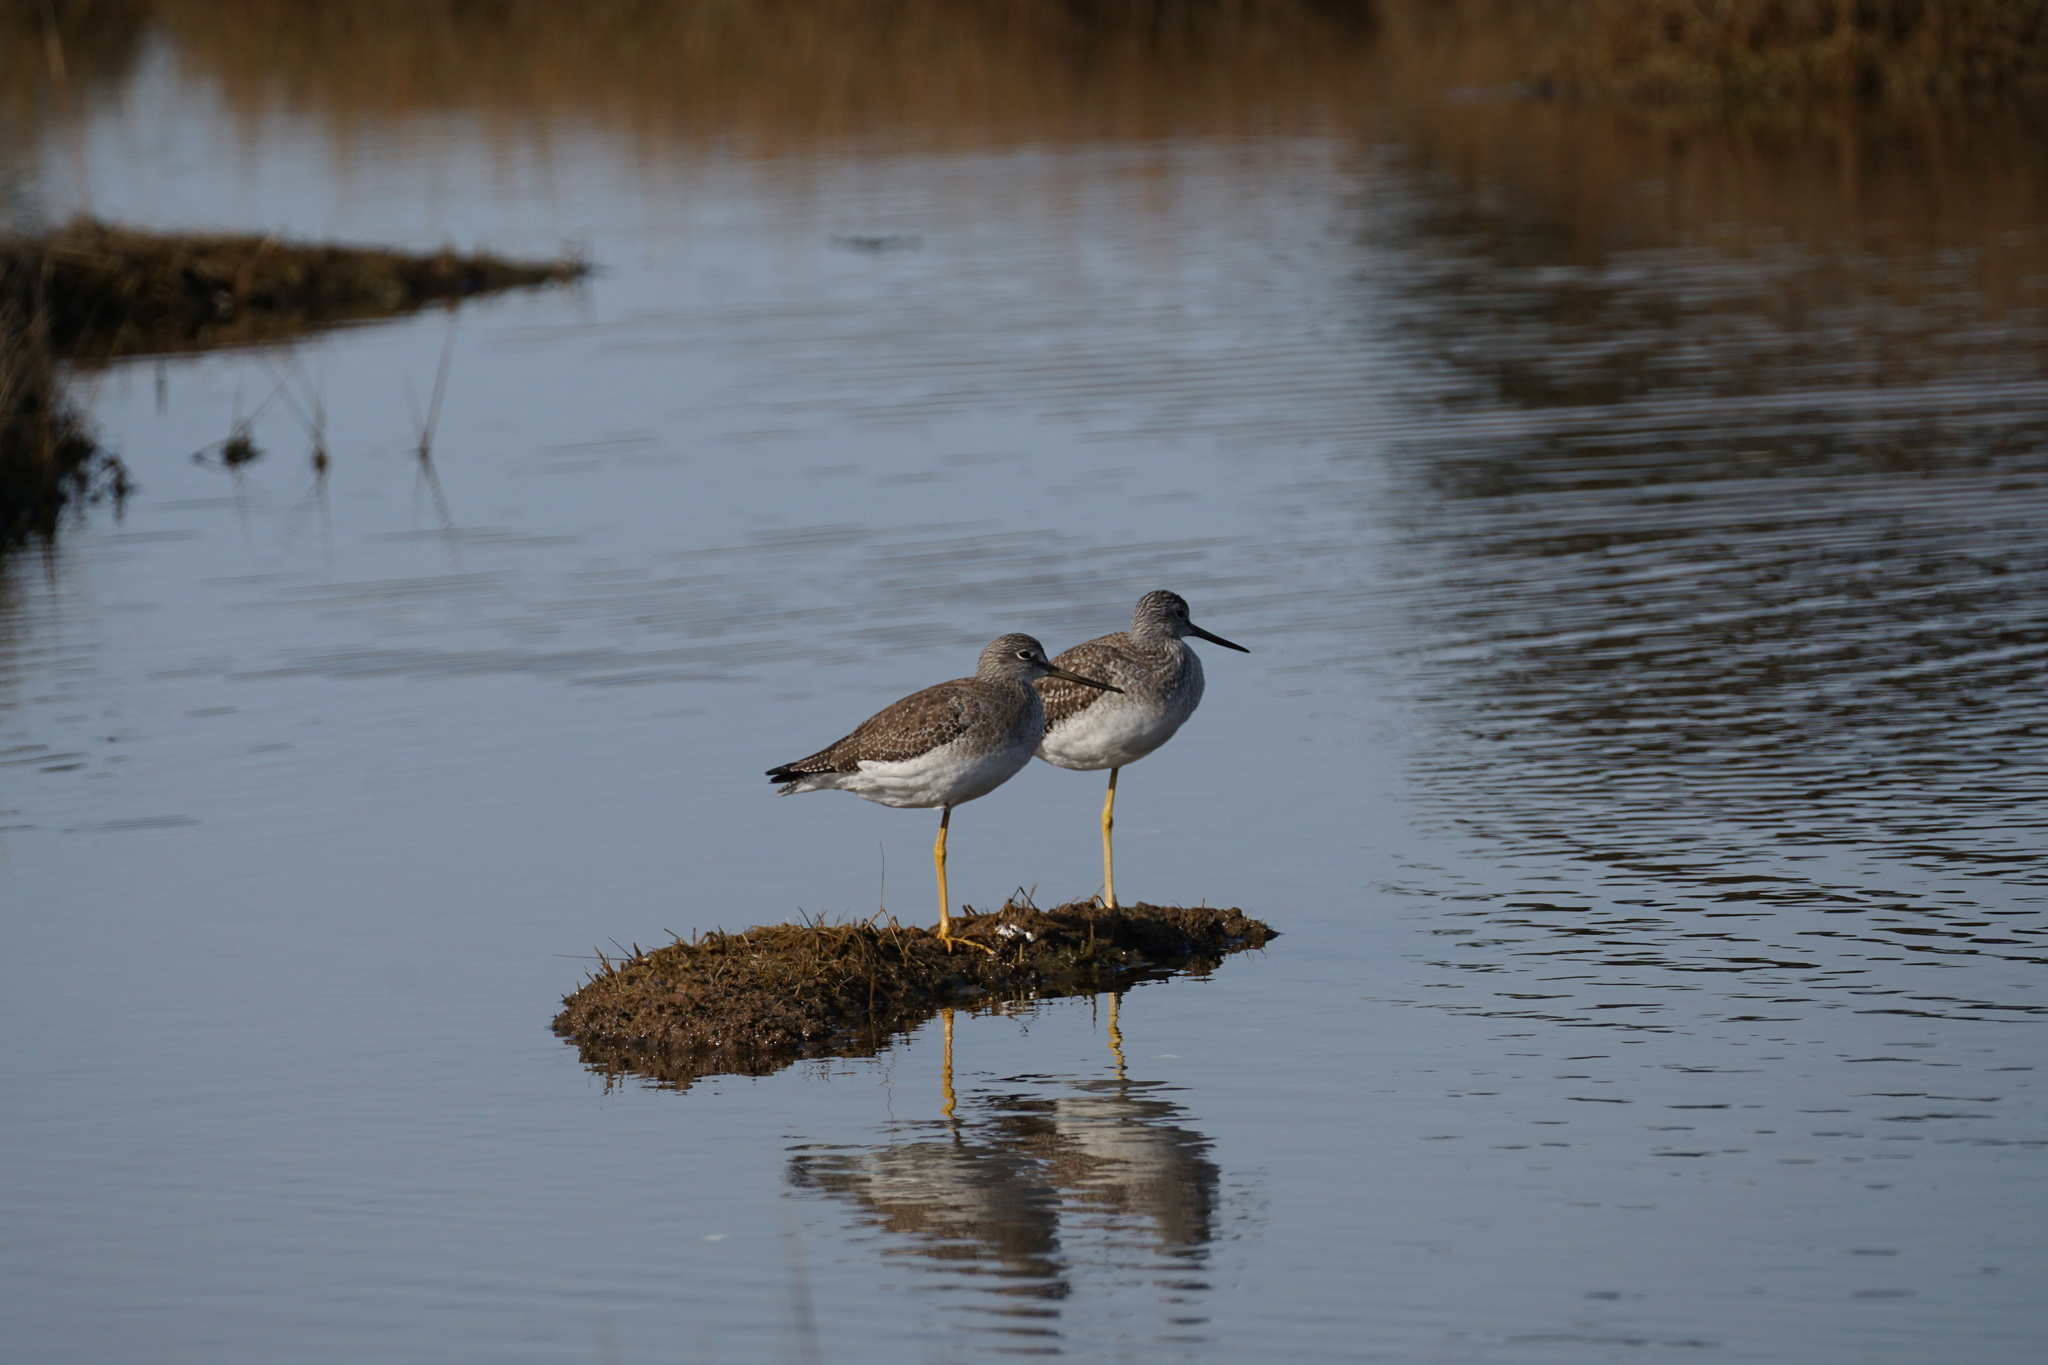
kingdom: Animalia
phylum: Chordata
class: Aves
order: Charadriiformes
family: Scolopacidae
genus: Tringa
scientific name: Tringa melanoleuca
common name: Greater yellowlegs
